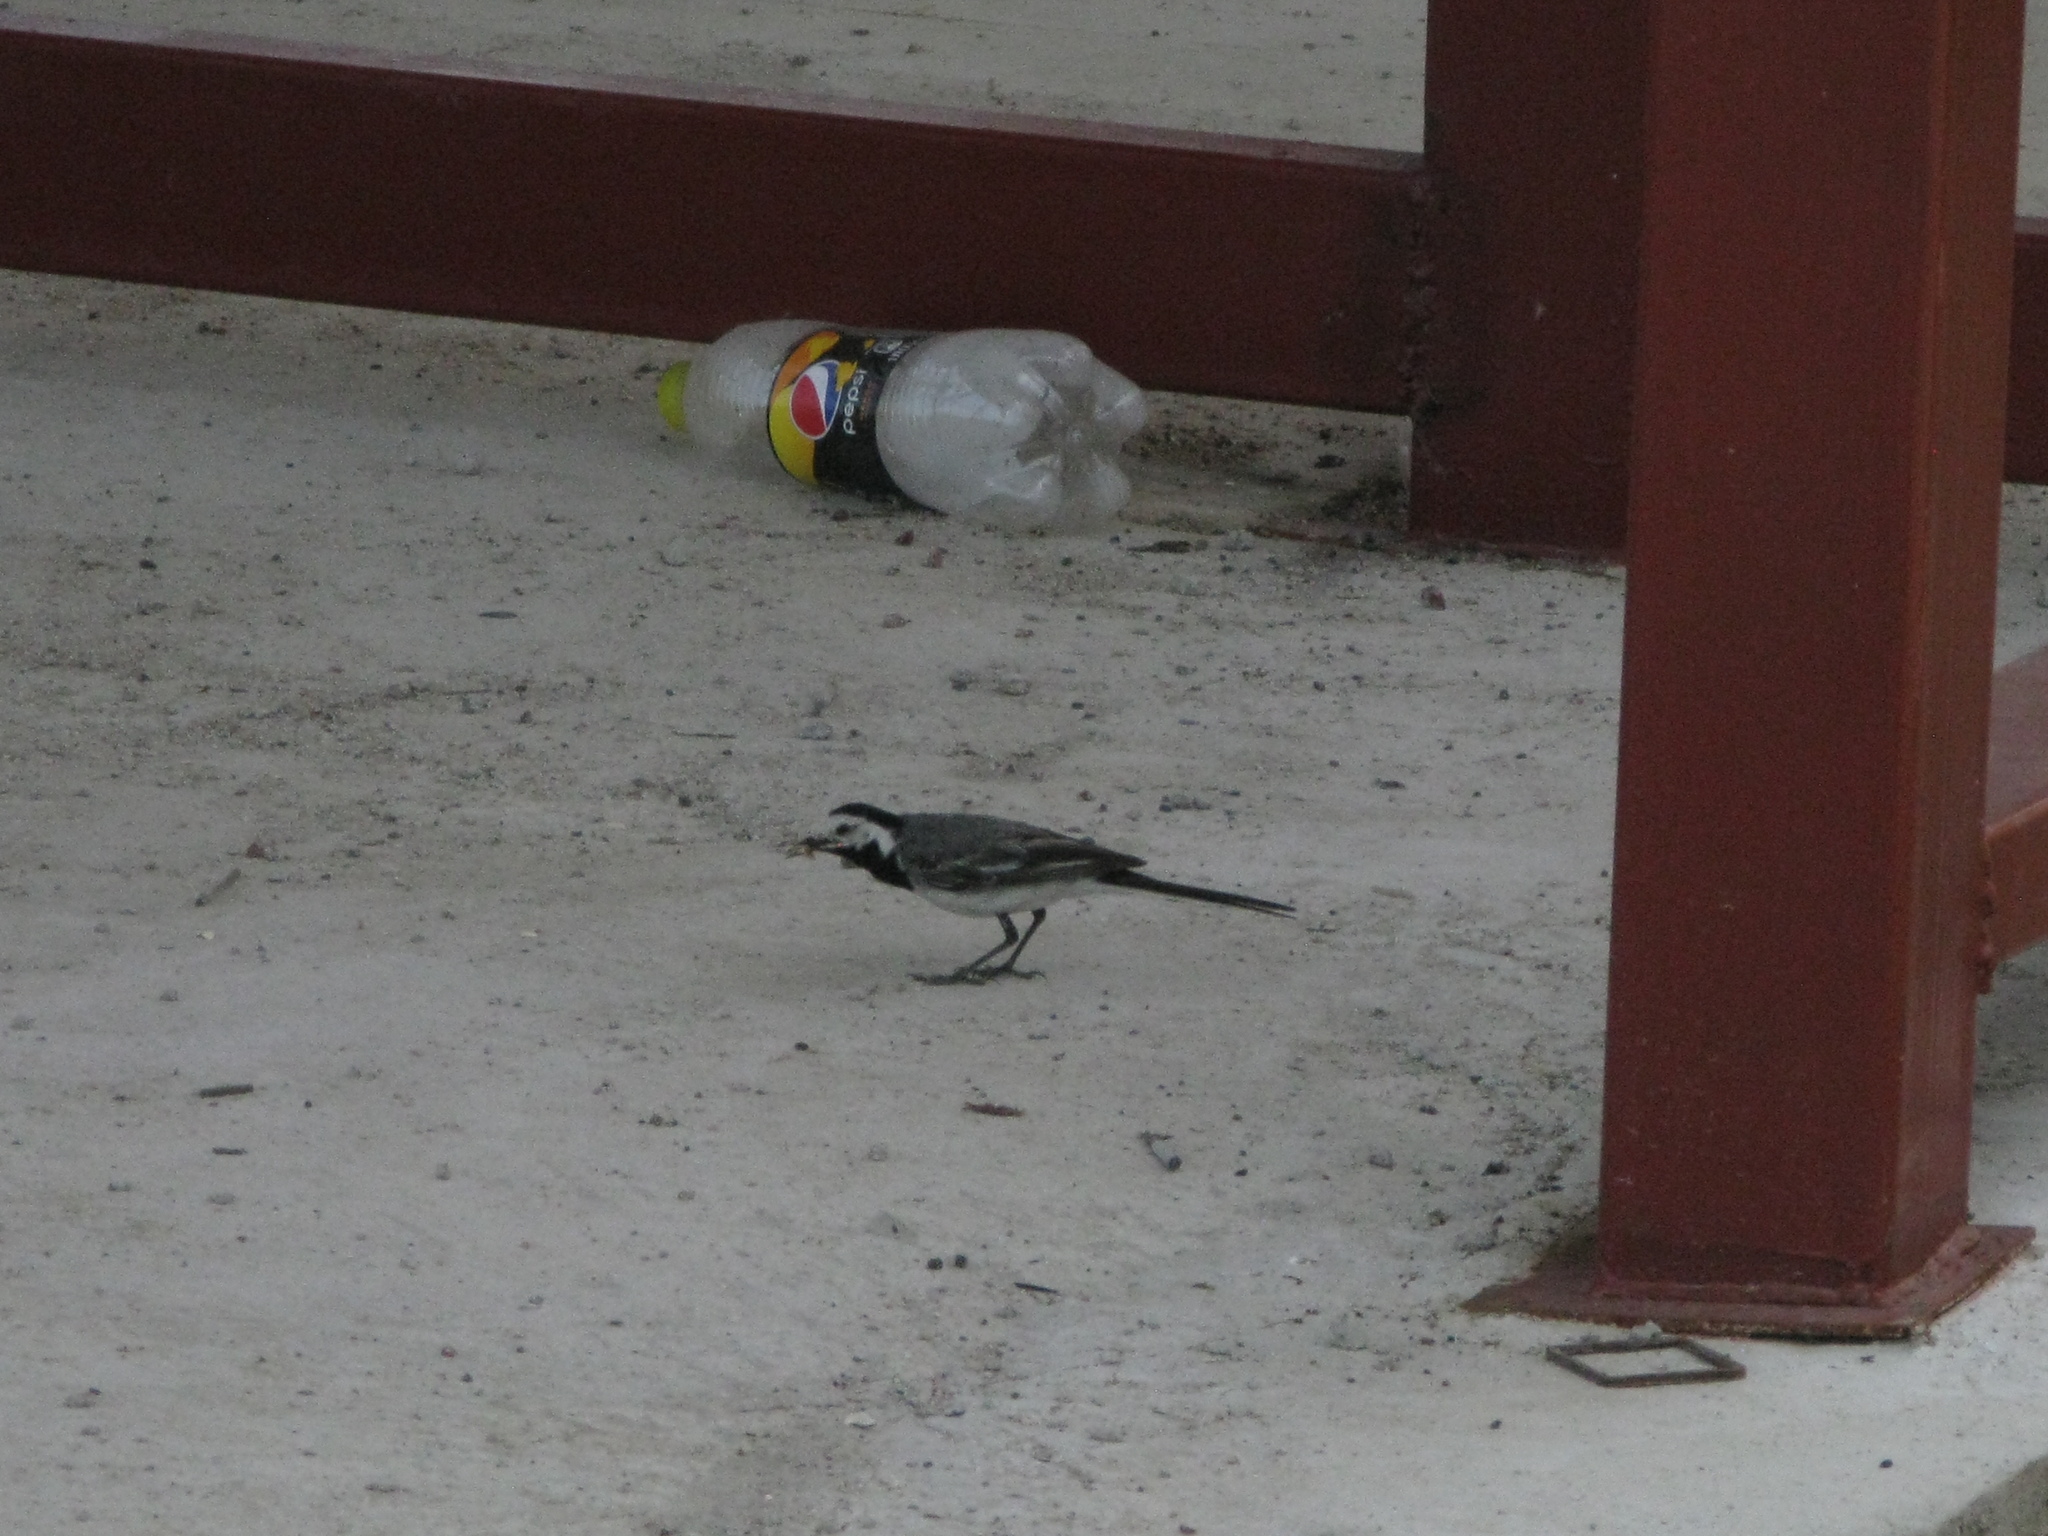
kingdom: Animalia
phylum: Chordata
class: Aves
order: Passeriformes
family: Motacillidae
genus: Motacilla
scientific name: Motacilla alba
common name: White wagtail
